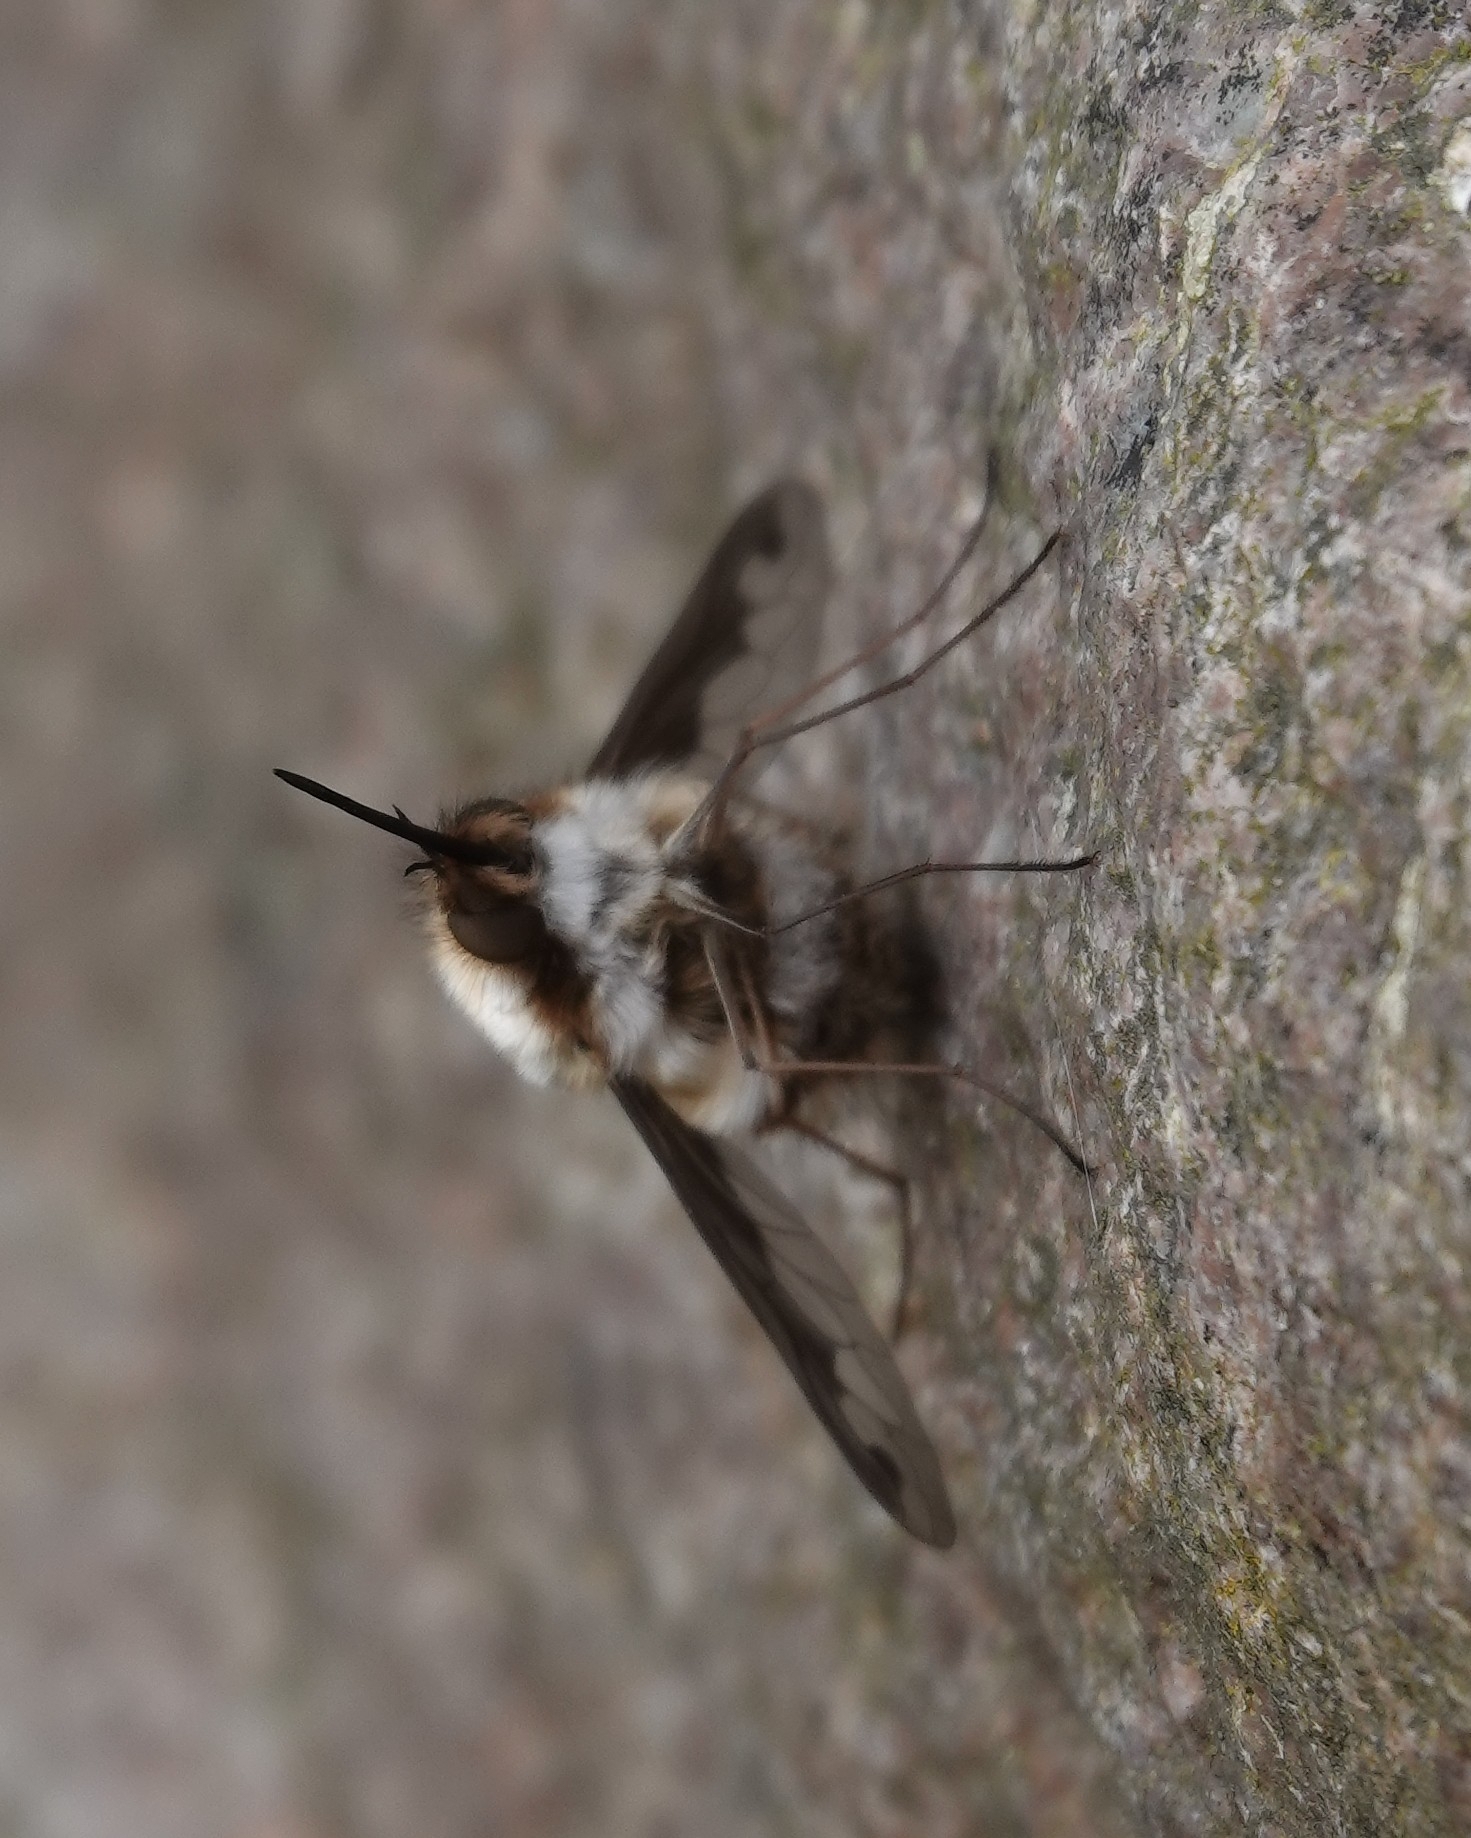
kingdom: Animalia
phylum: Arthropoda
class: Insecta
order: Diptera
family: Bombyliidae
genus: Bombylius
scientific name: Bombylius major
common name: Bee fly
